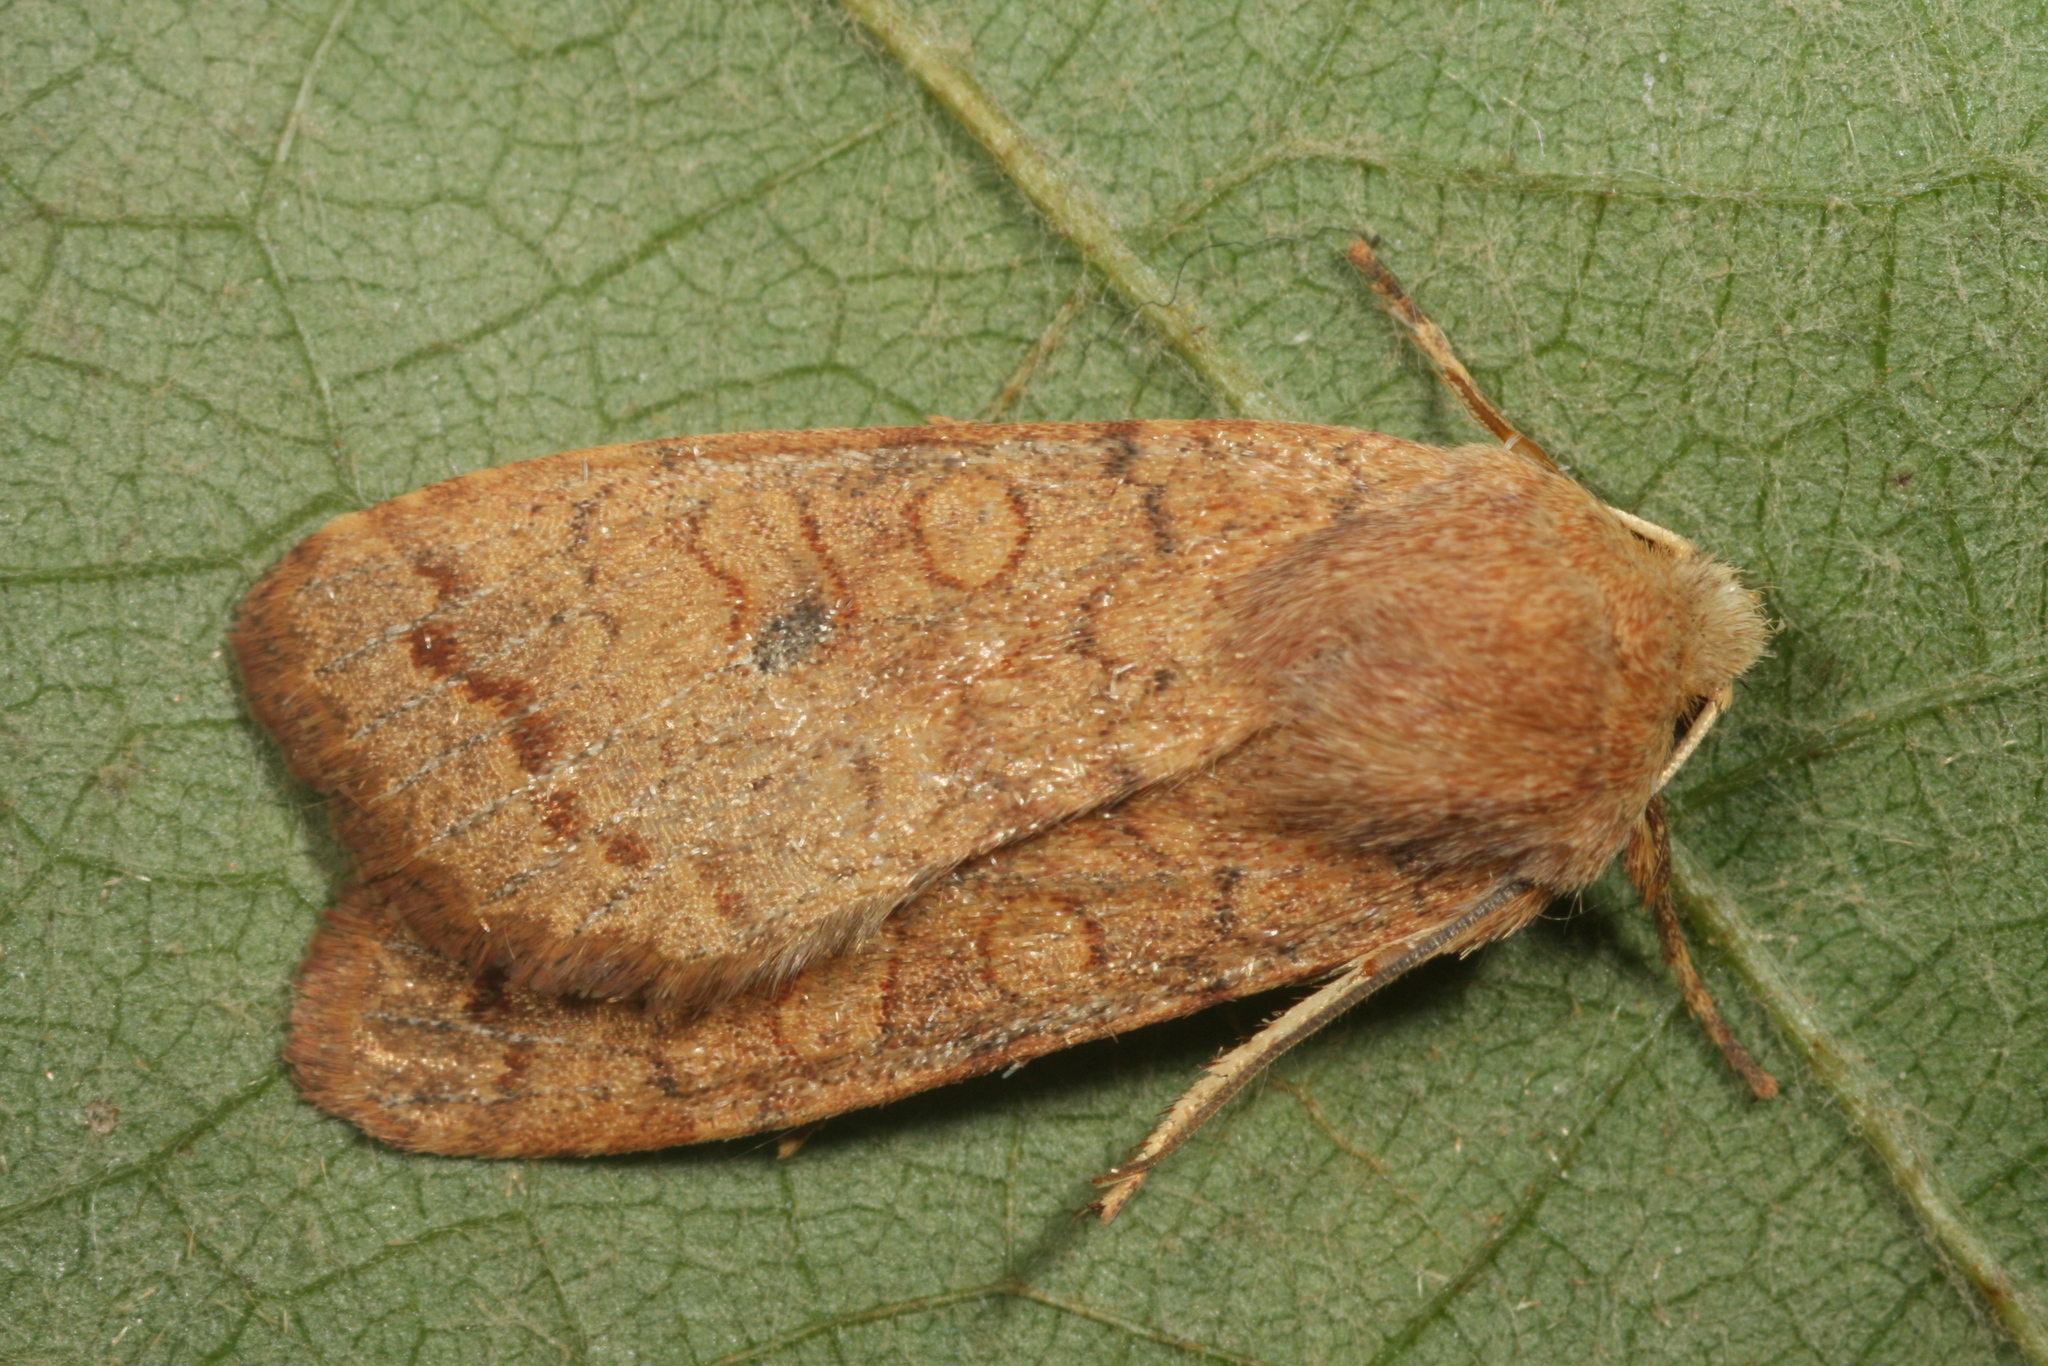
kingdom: Animalia
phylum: Arthropoda
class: Insecta
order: Lepidoptera
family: Noctuidae
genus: Sunira
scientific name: Sunira circellaris
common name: Brick
